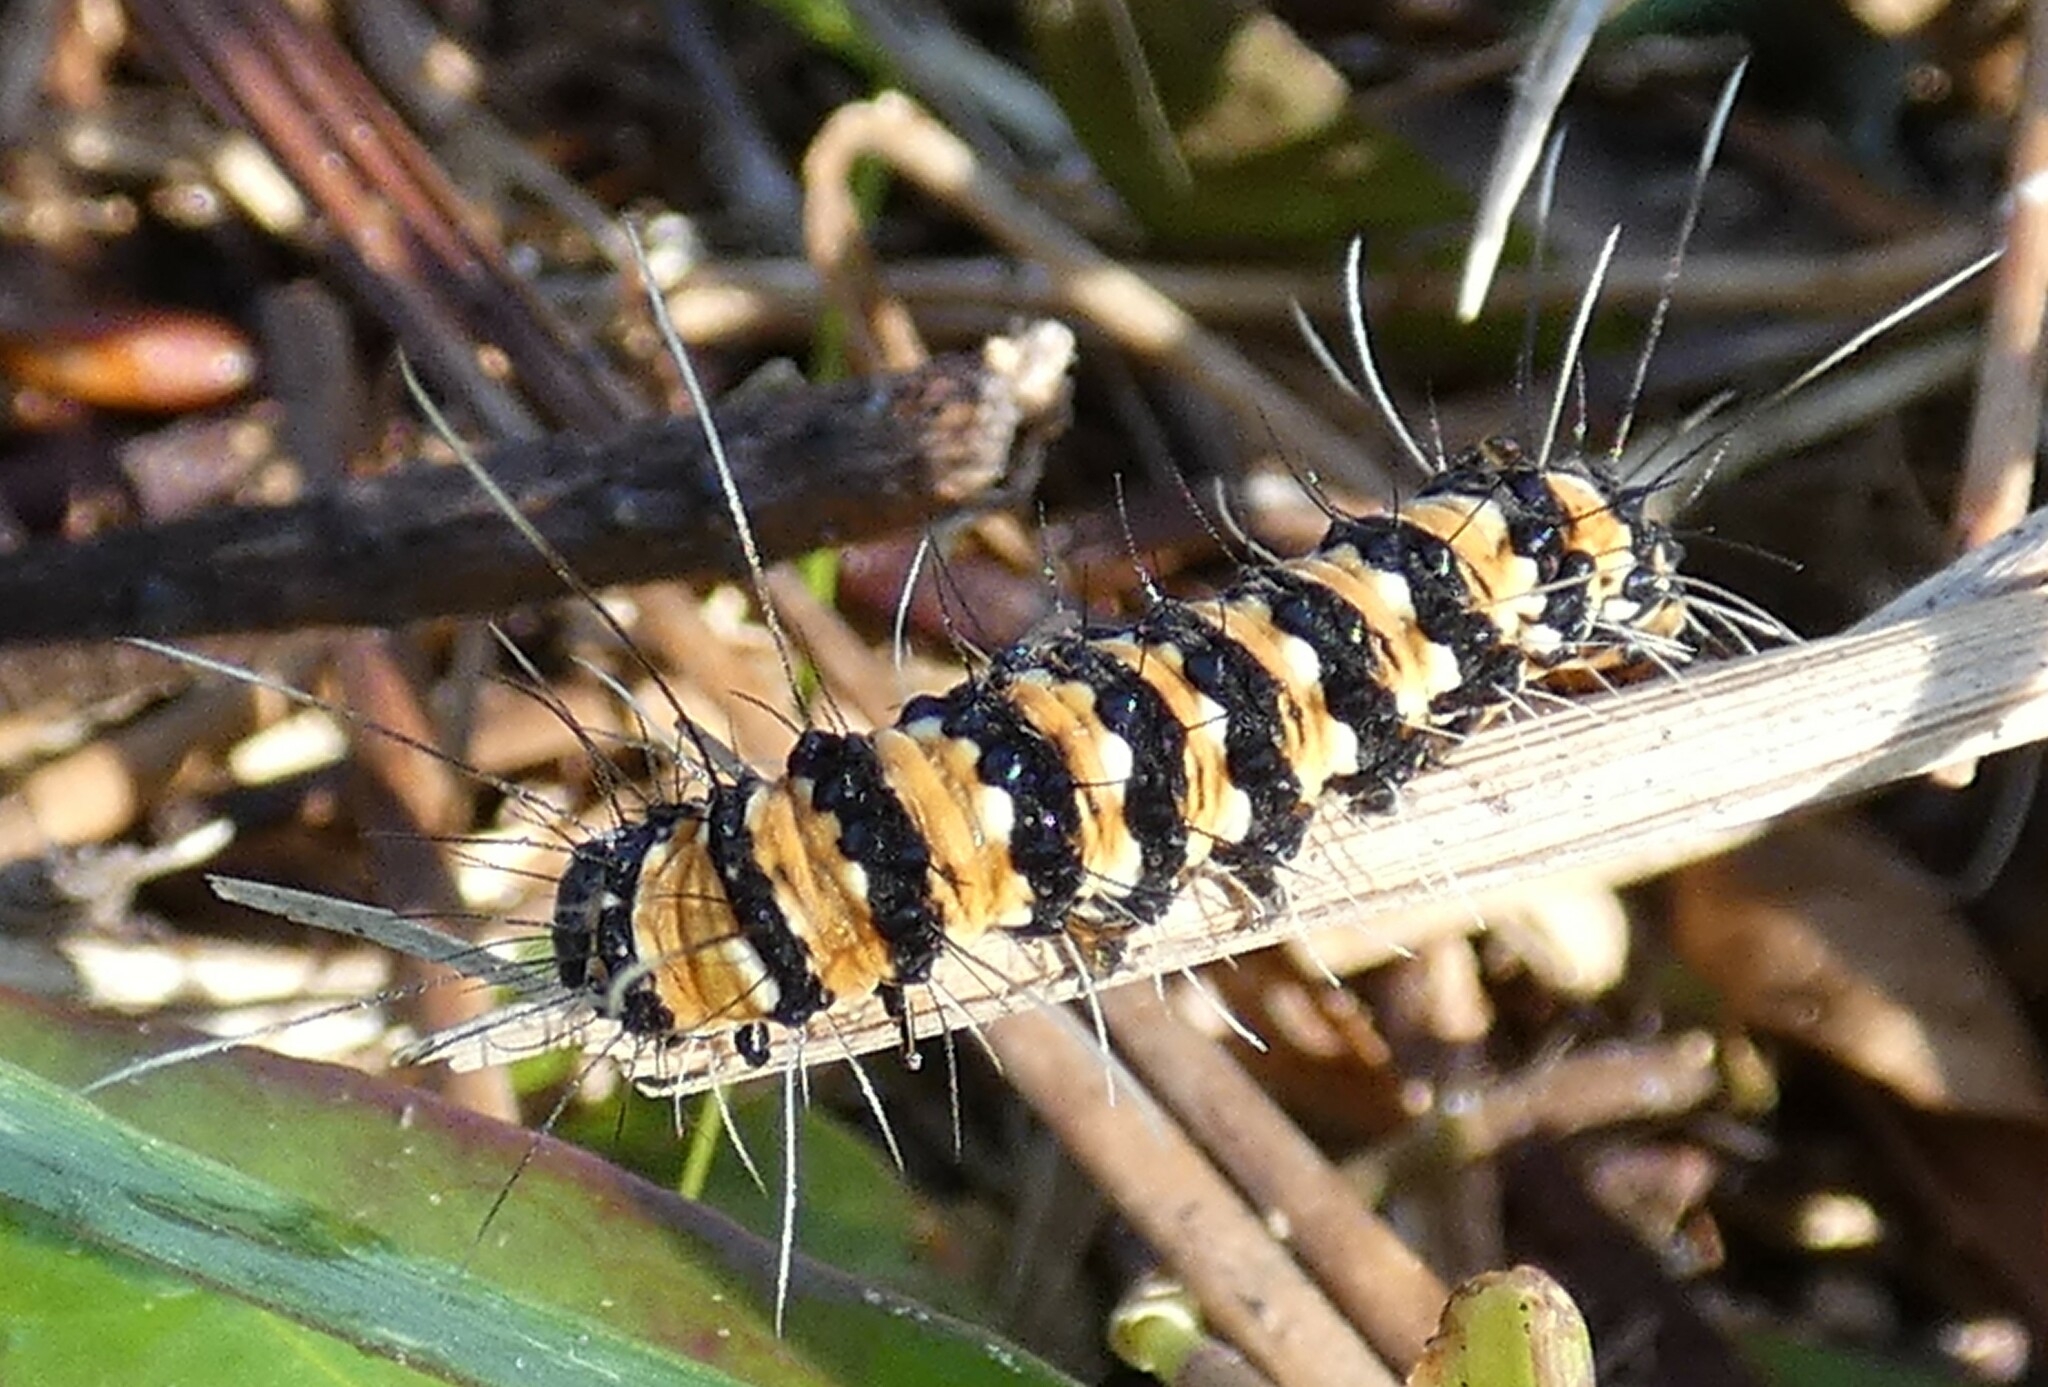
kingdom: Animalia
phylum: Arthropoda
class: Insecta
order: Lepidoptera
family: Erebidae
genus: Utetheisa
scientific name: Utetheisa ornatrix
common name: Beautiful utetheisa
